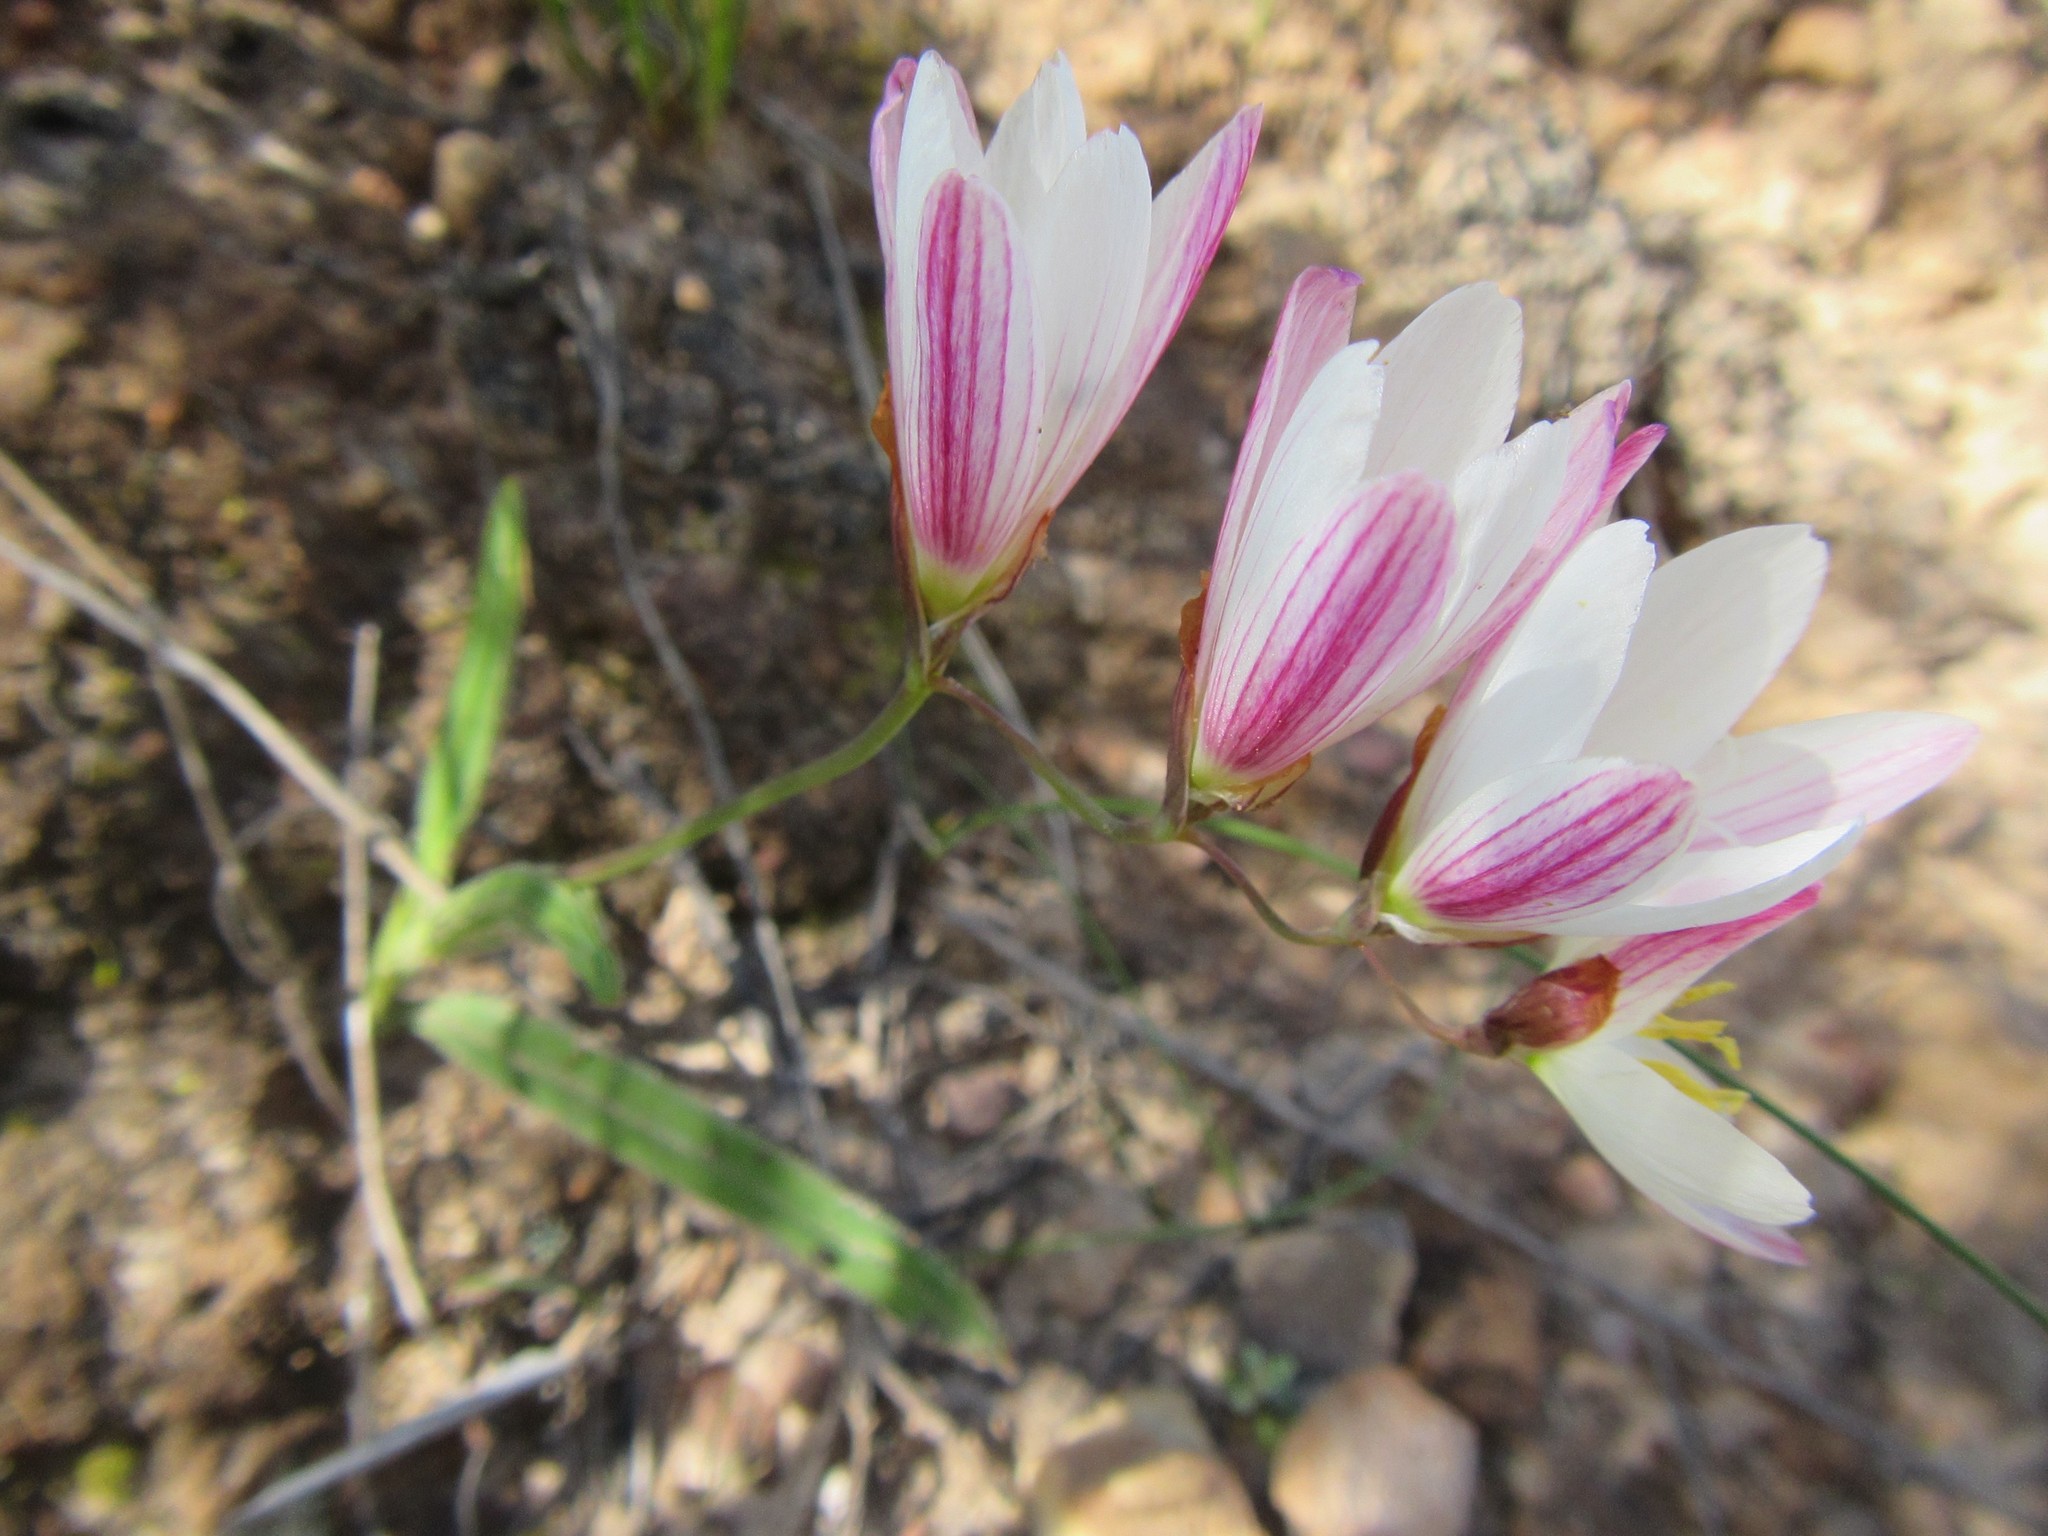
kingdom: Plantae
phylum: Tracheophyta
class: Liliopsida
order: Asparagales
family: Iridaceae
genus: Geissorhiza
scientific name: Geissorhiza erosa
